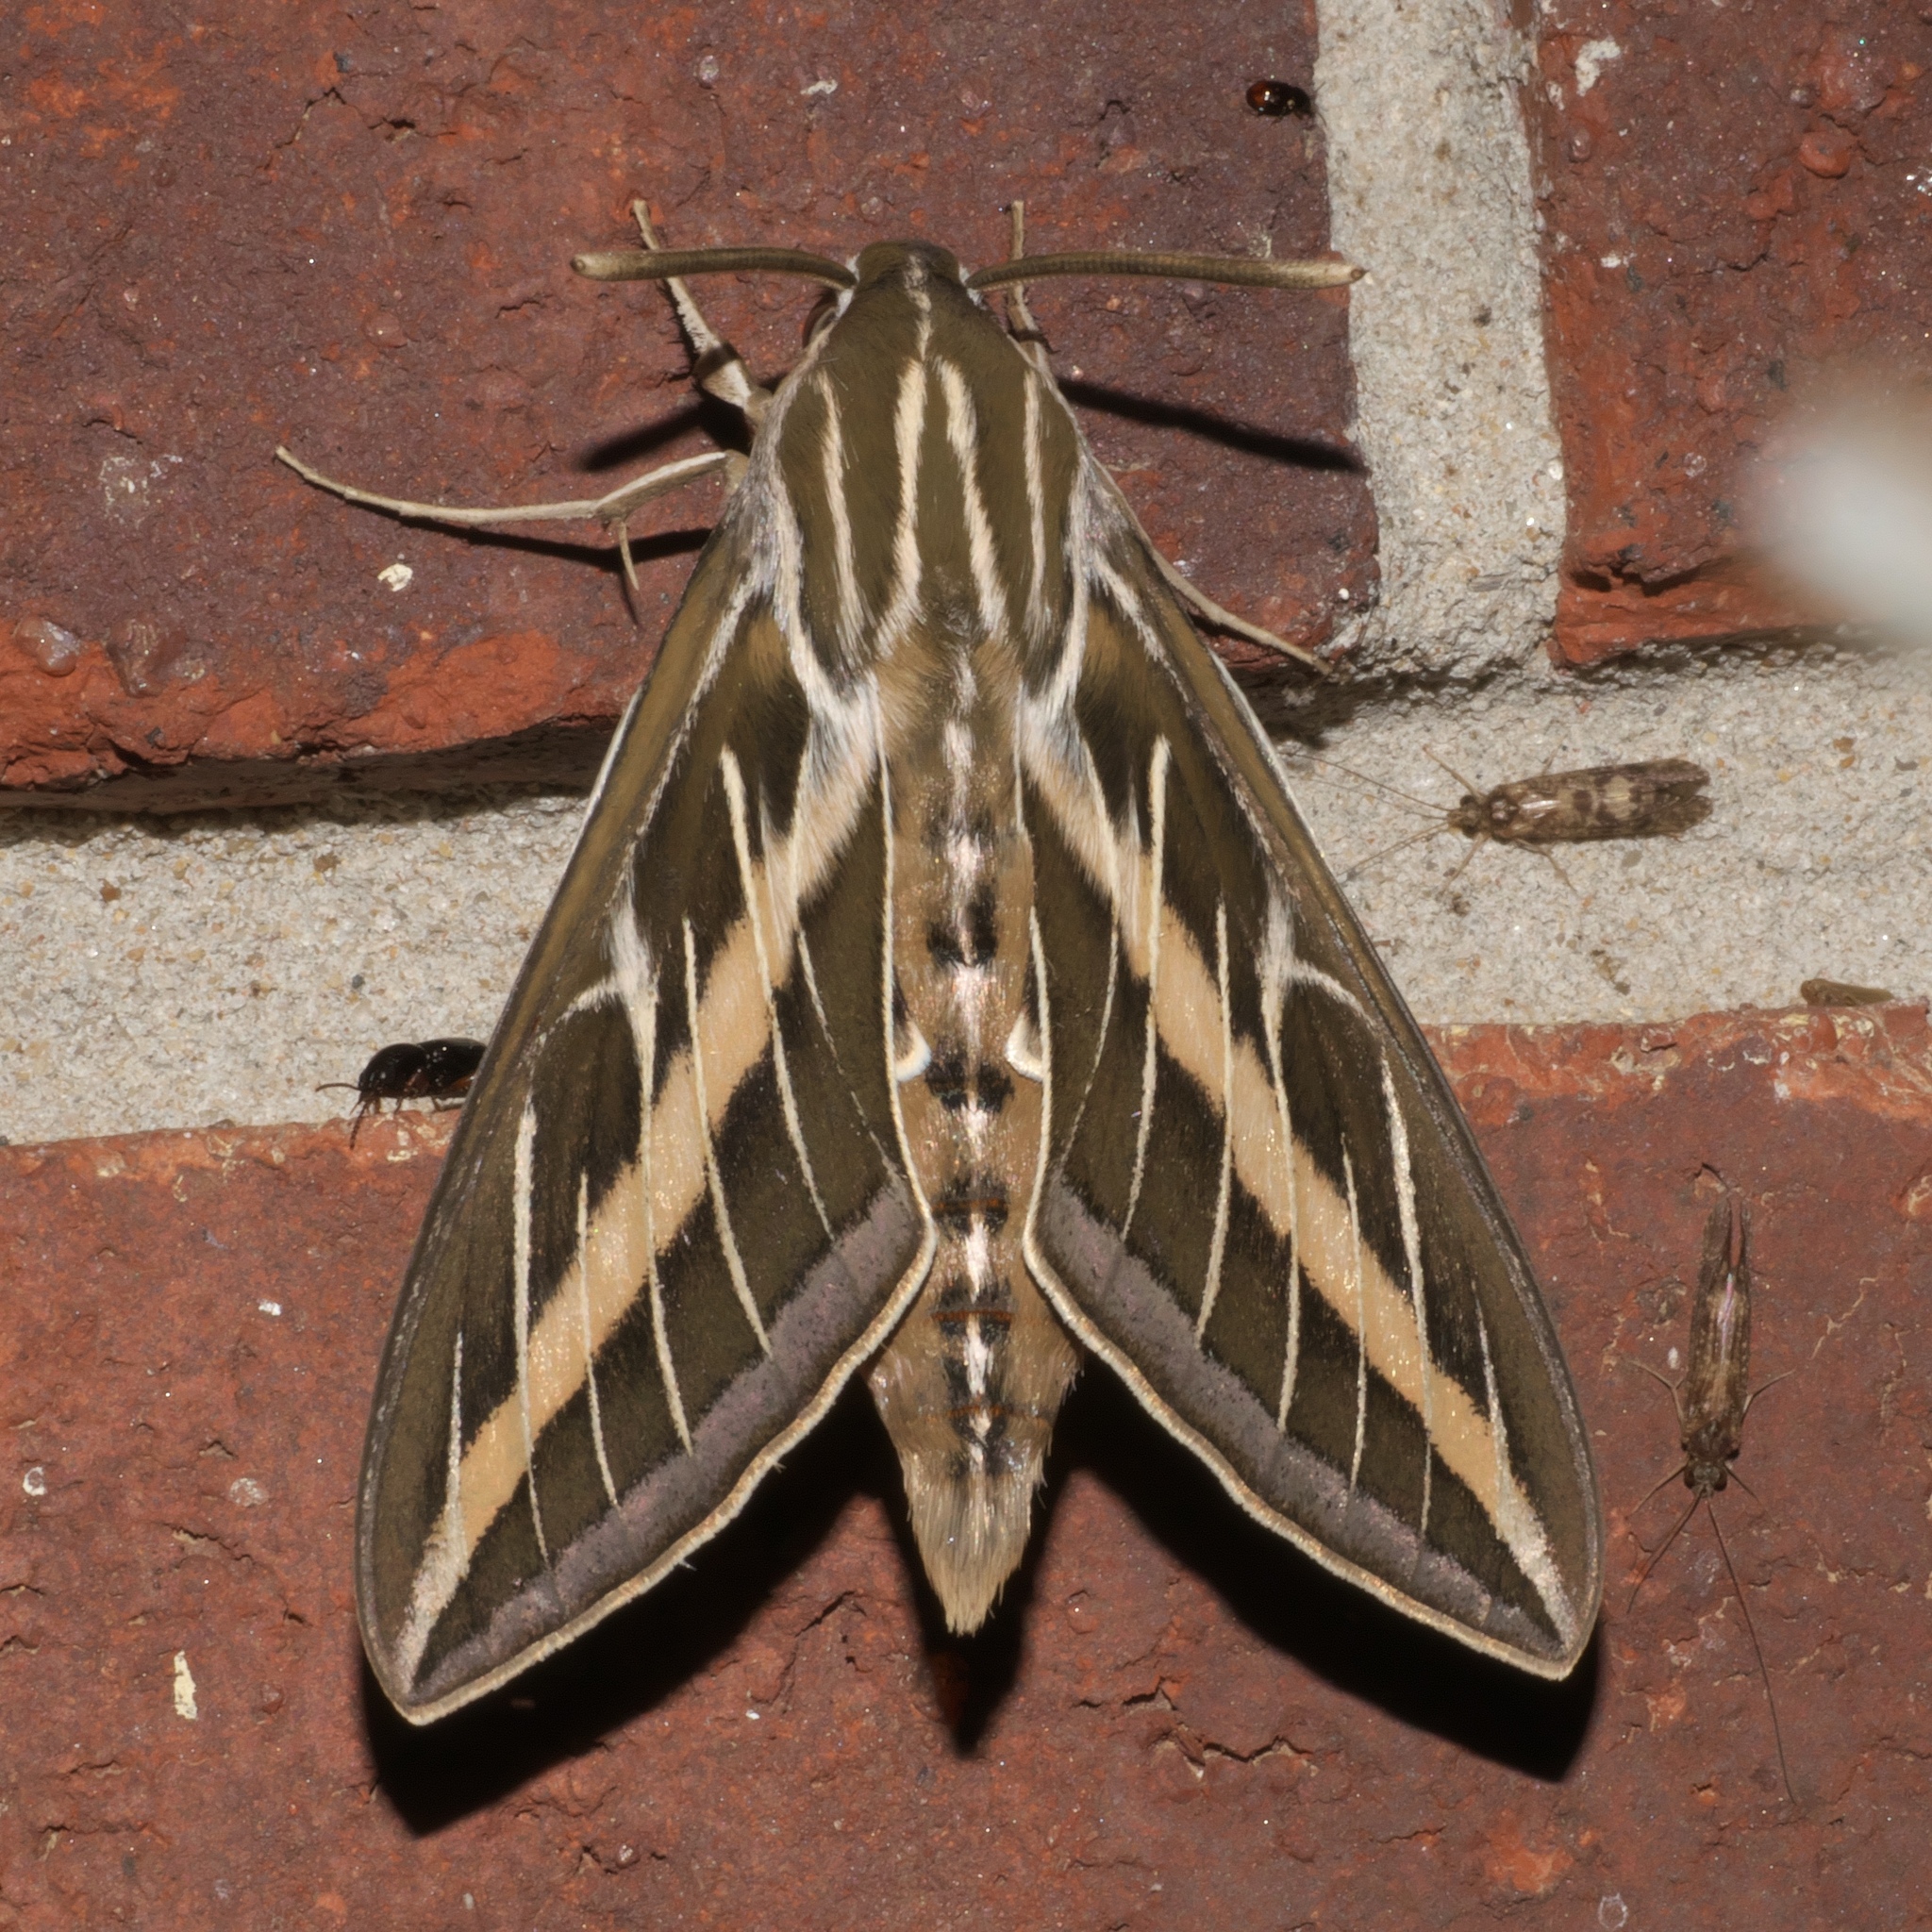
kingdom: Animalia
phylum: Arthropoda
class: Insecta
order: Lepidoptera
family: Sphingidae
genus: Hyles
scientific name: Hyles lineata
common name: White-lined sphinx
